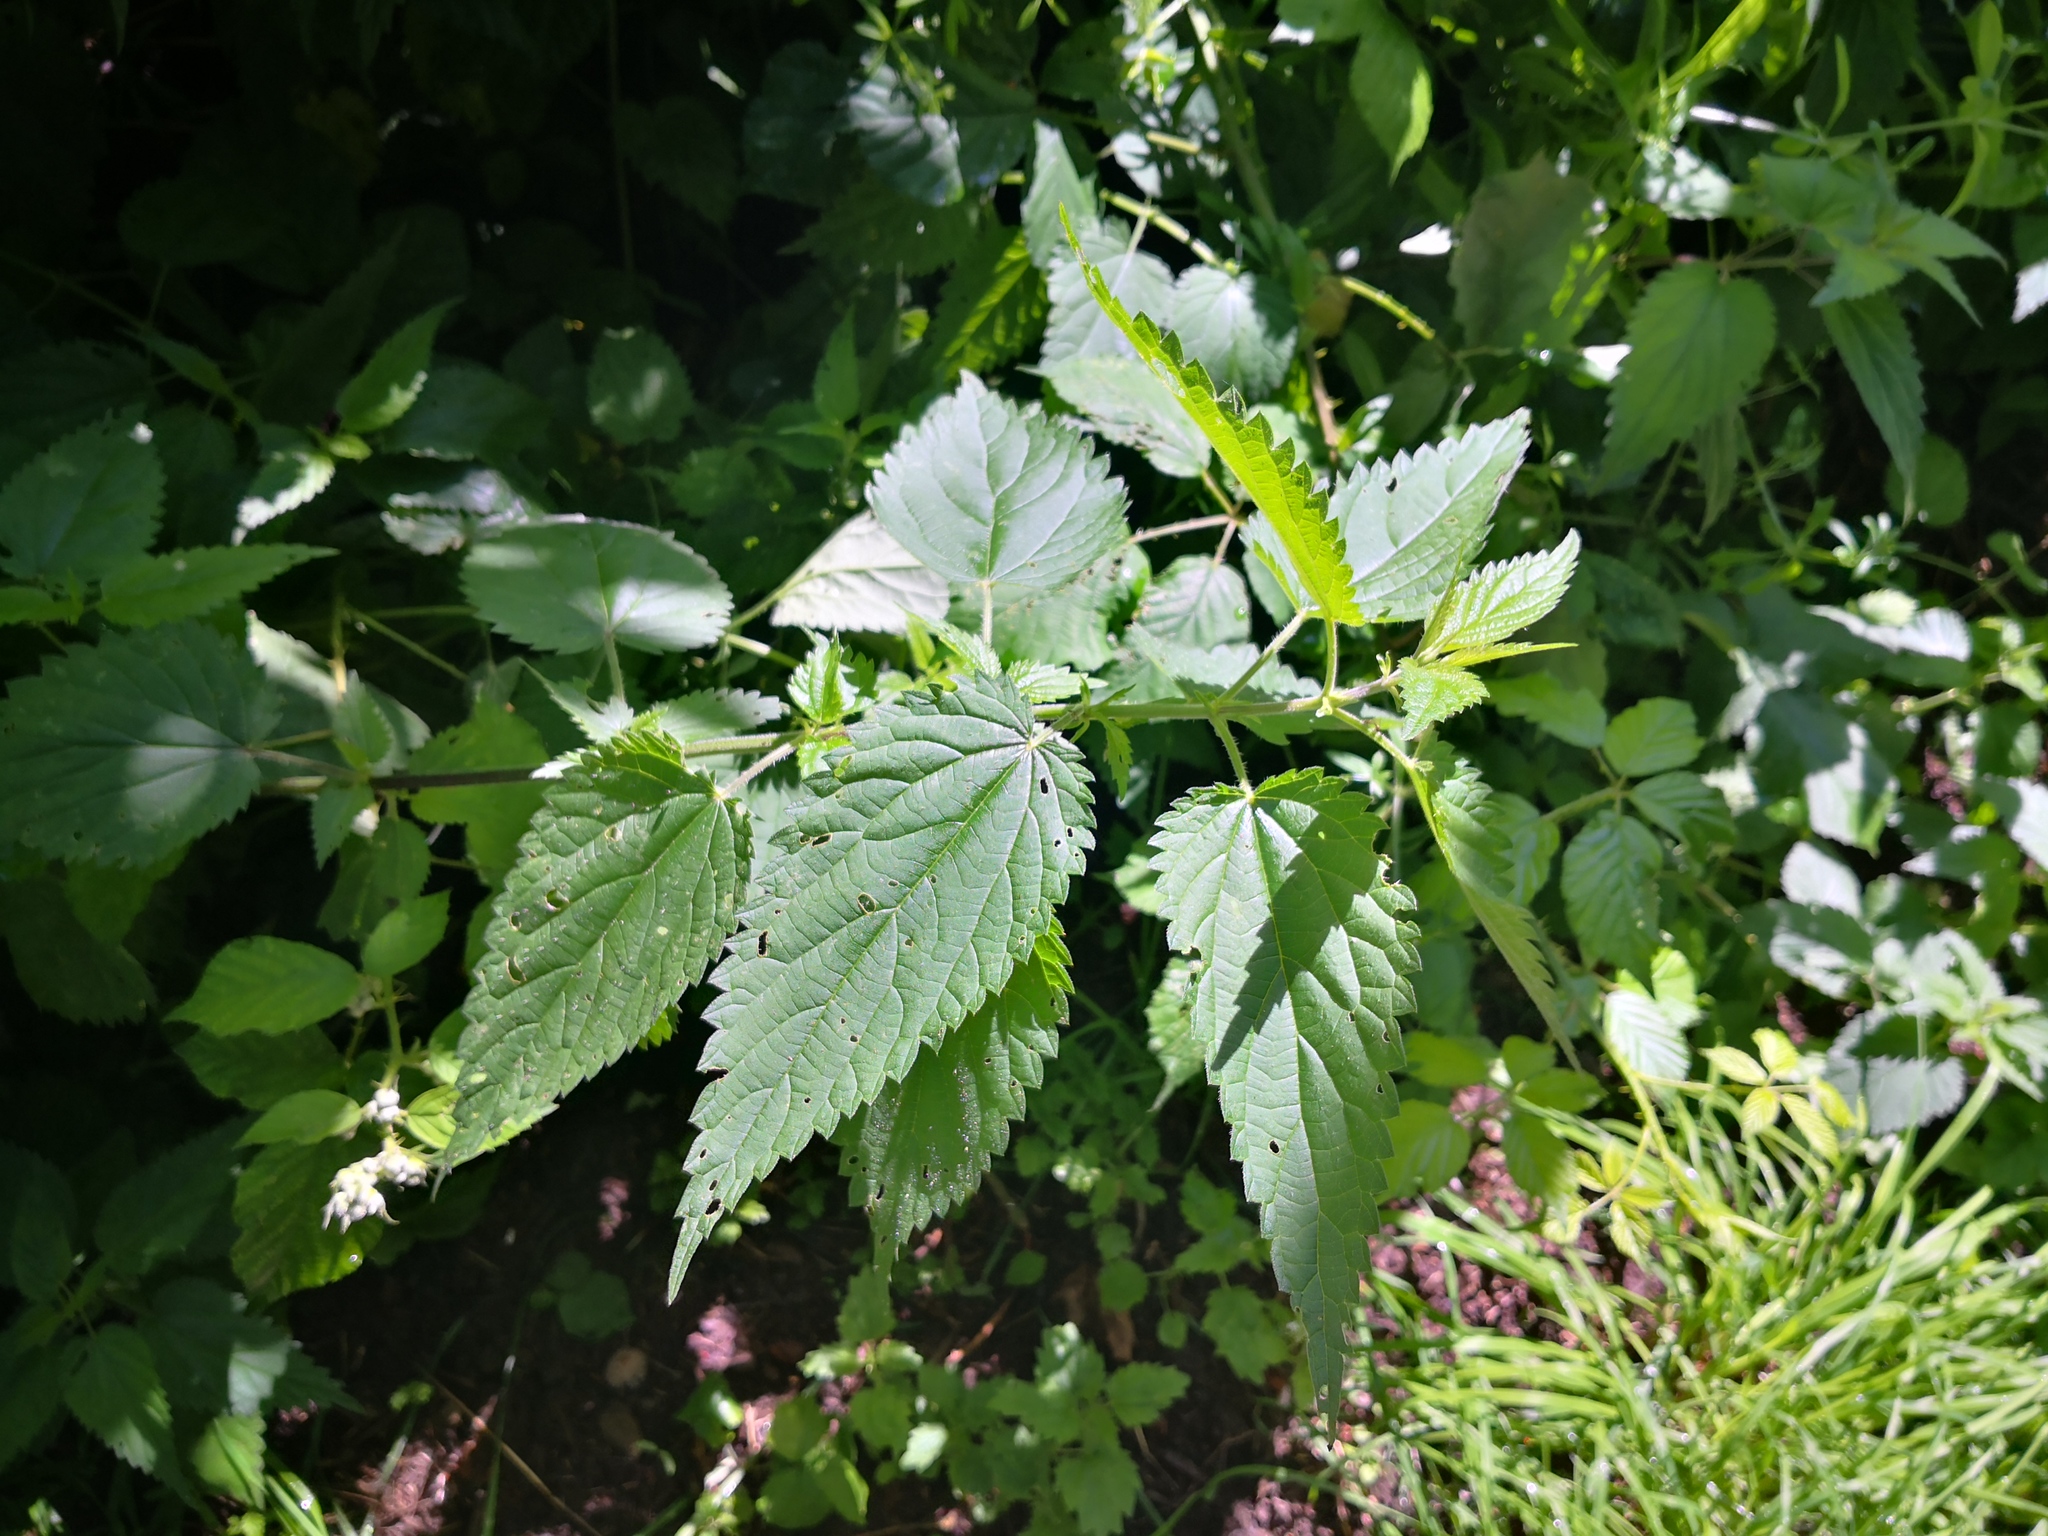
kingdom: Plantae
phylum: Tracheophyta
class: Magnoliopsida
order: Rosales
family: Urticaceae
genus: Urtica
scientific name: Urtica dioica
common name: Common nettle
